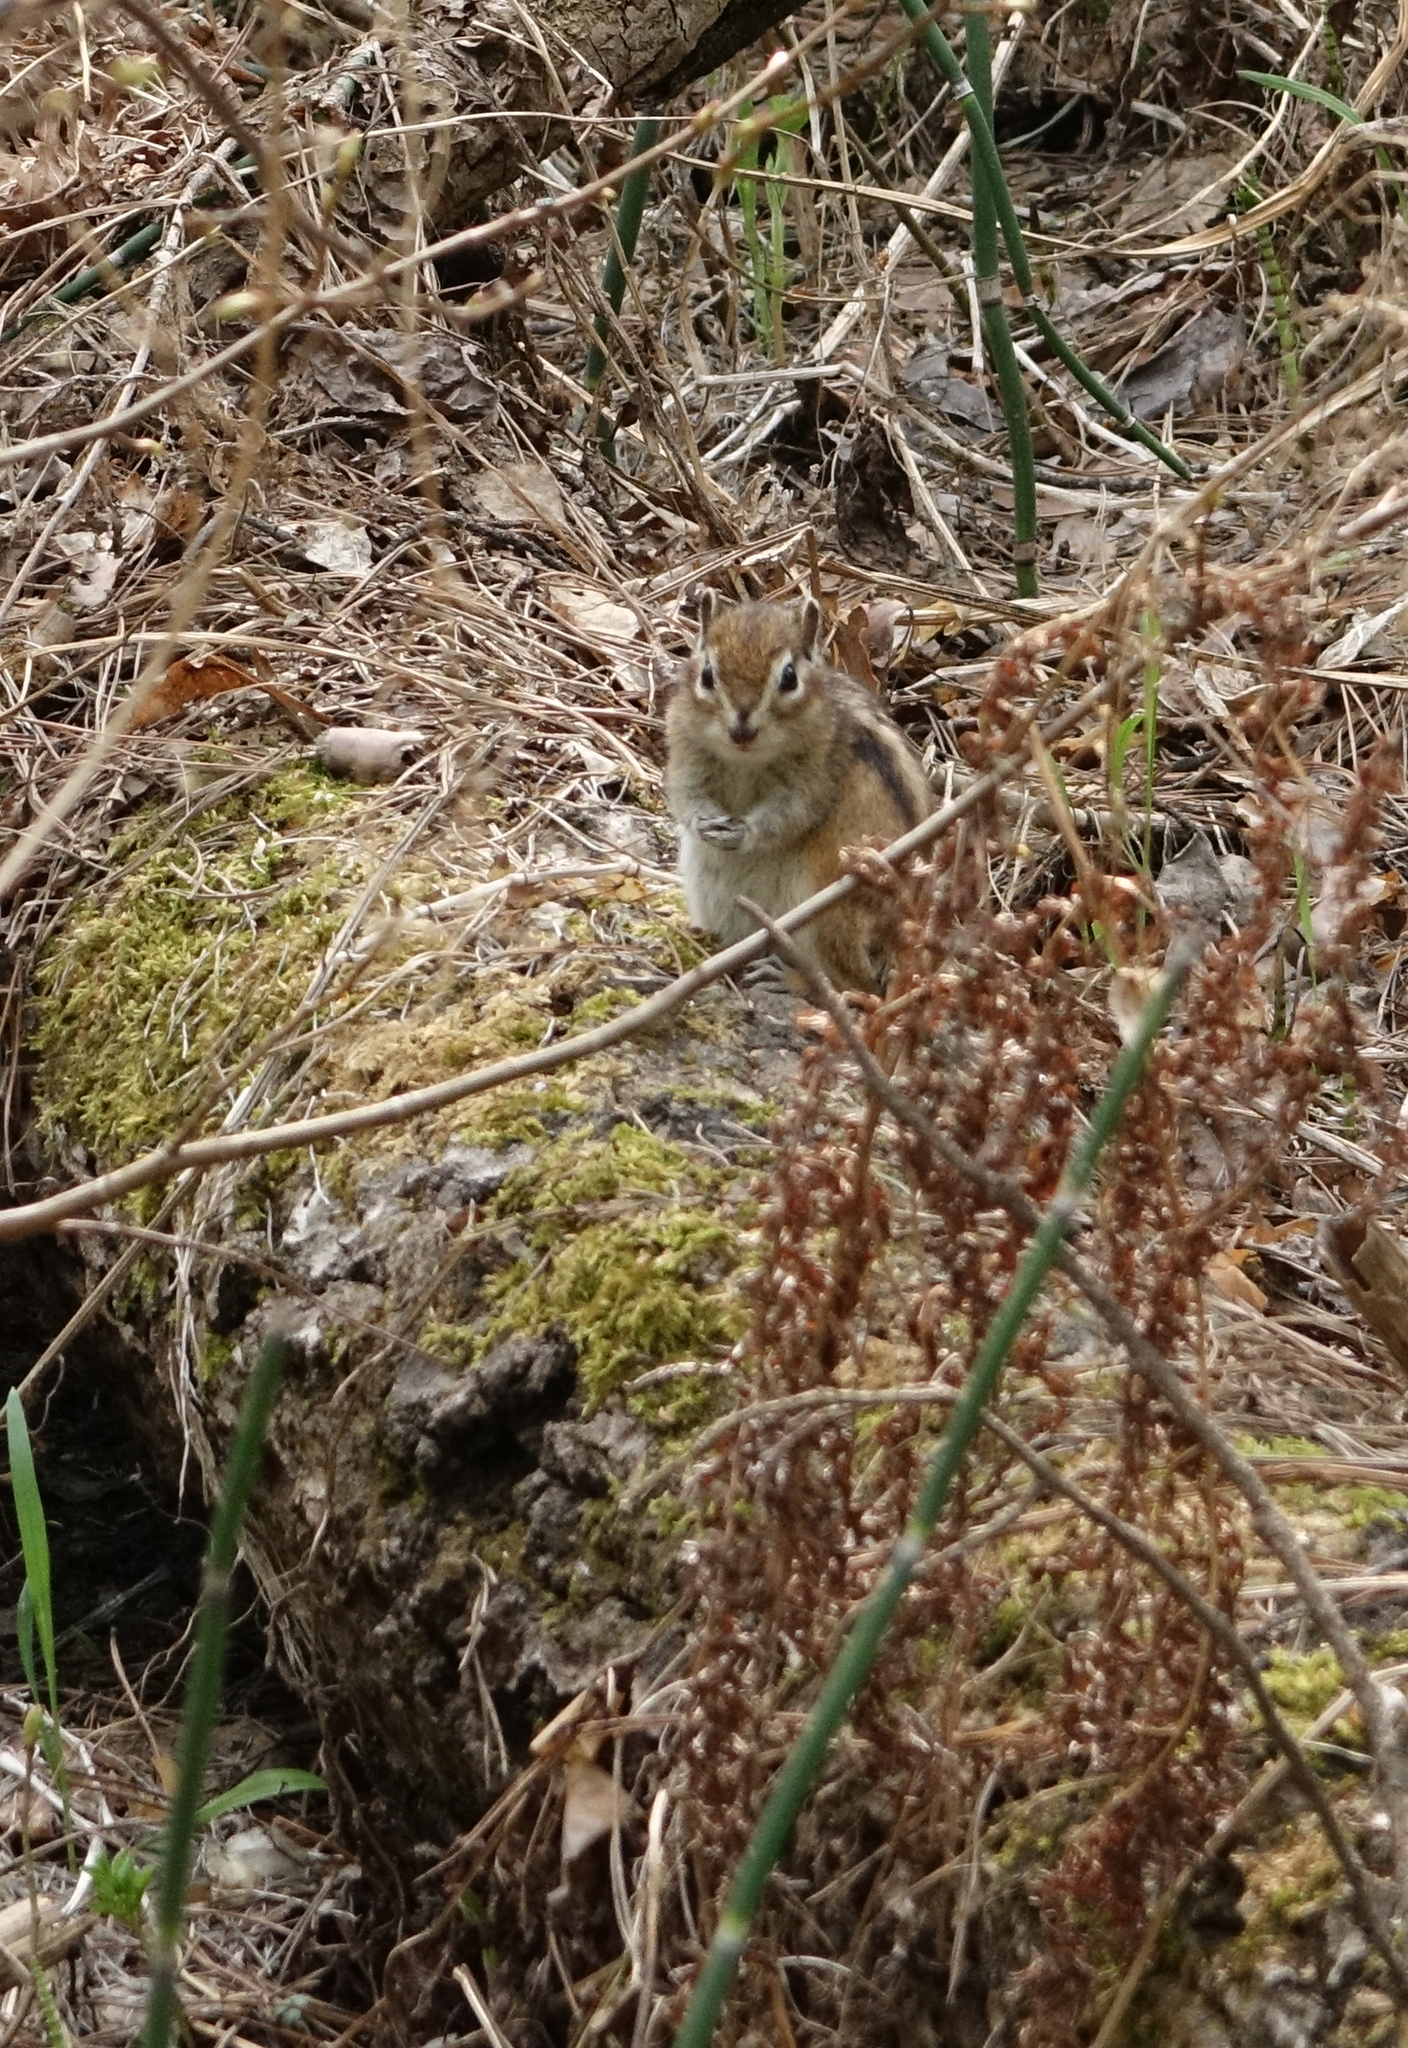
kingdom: Animalia
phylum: Chordata
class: Mammalia
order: Rodentia
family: Sciuridae
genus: Tamias
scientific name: Tamias sibiricus
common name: Siberian chipmunk
